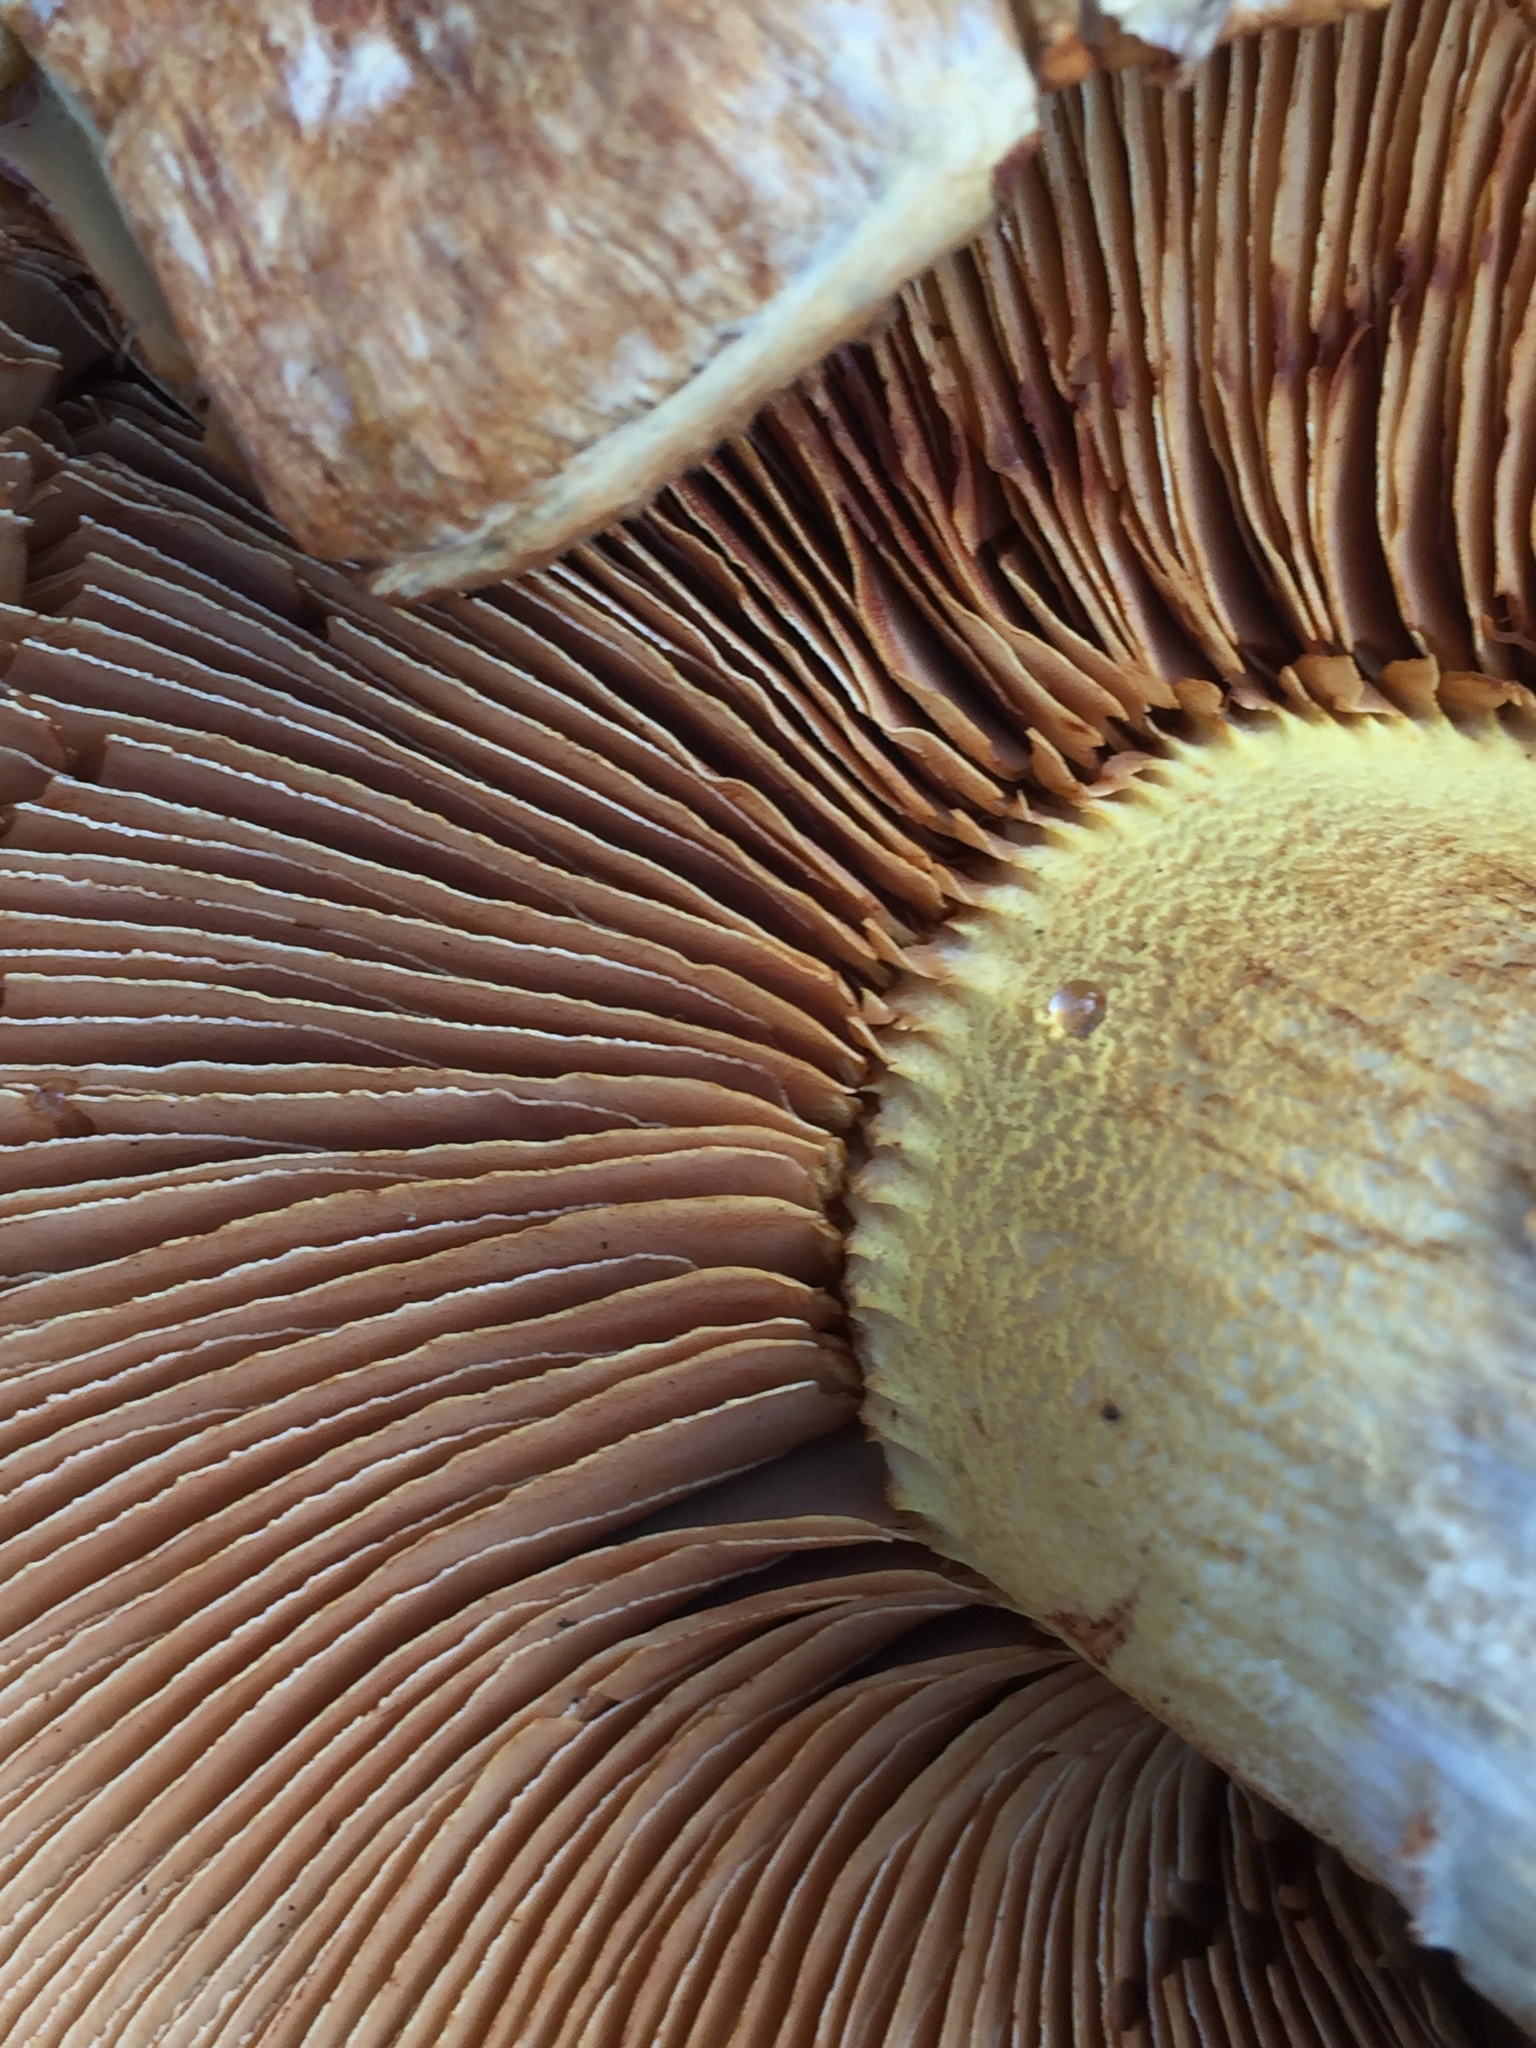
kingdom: Fungi
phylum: Basidiomycota
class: Agaricomycetes
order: Agaricales
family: Hymenogastraceae
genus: Gymnopilus
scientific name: Gymnopilus ventricosus
